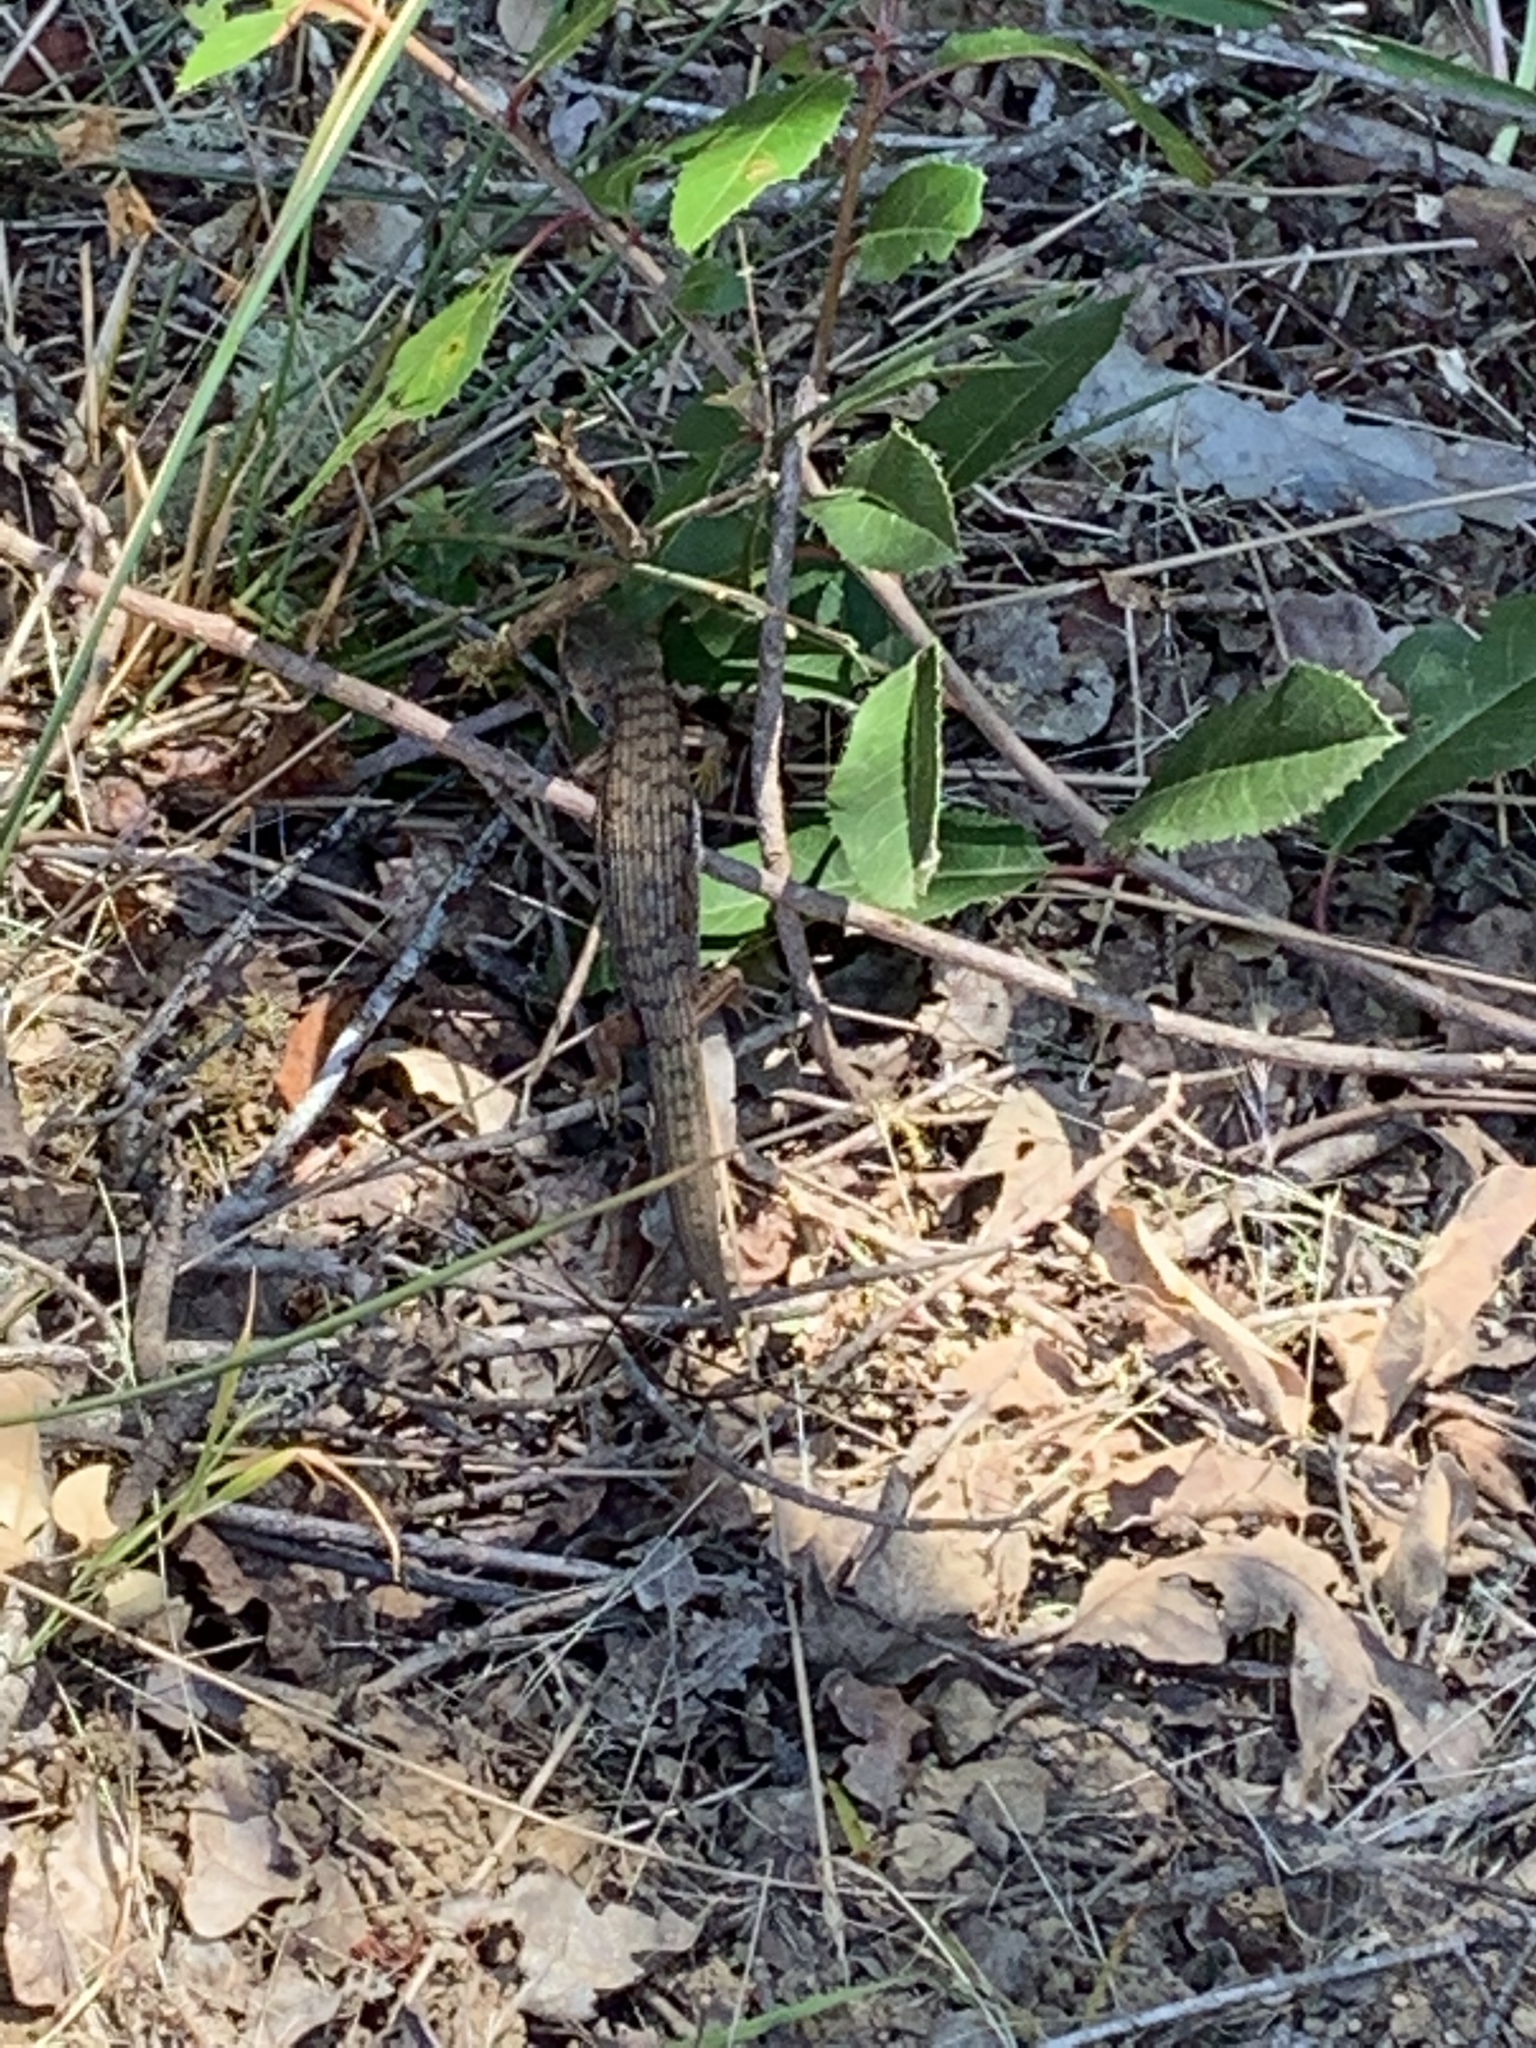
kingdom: Animalia
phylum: Chordata
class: Squamata
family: Anguidae
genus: Elgaria
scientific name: Elgaria multicarinata
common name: Southern alligator lizard
